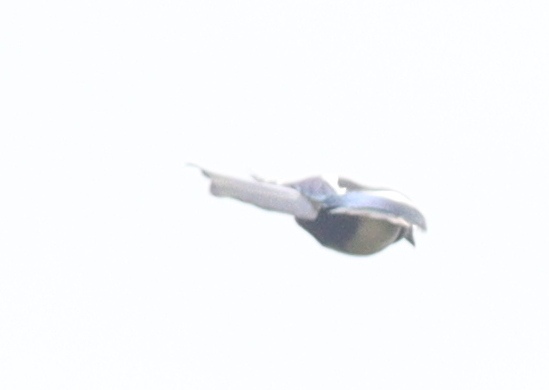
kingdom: Animalia
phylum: Chordata
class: Aves
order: Passeriformes
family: Corvidae
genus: Pica
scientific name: Pica pica
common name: Eurasian magpie
